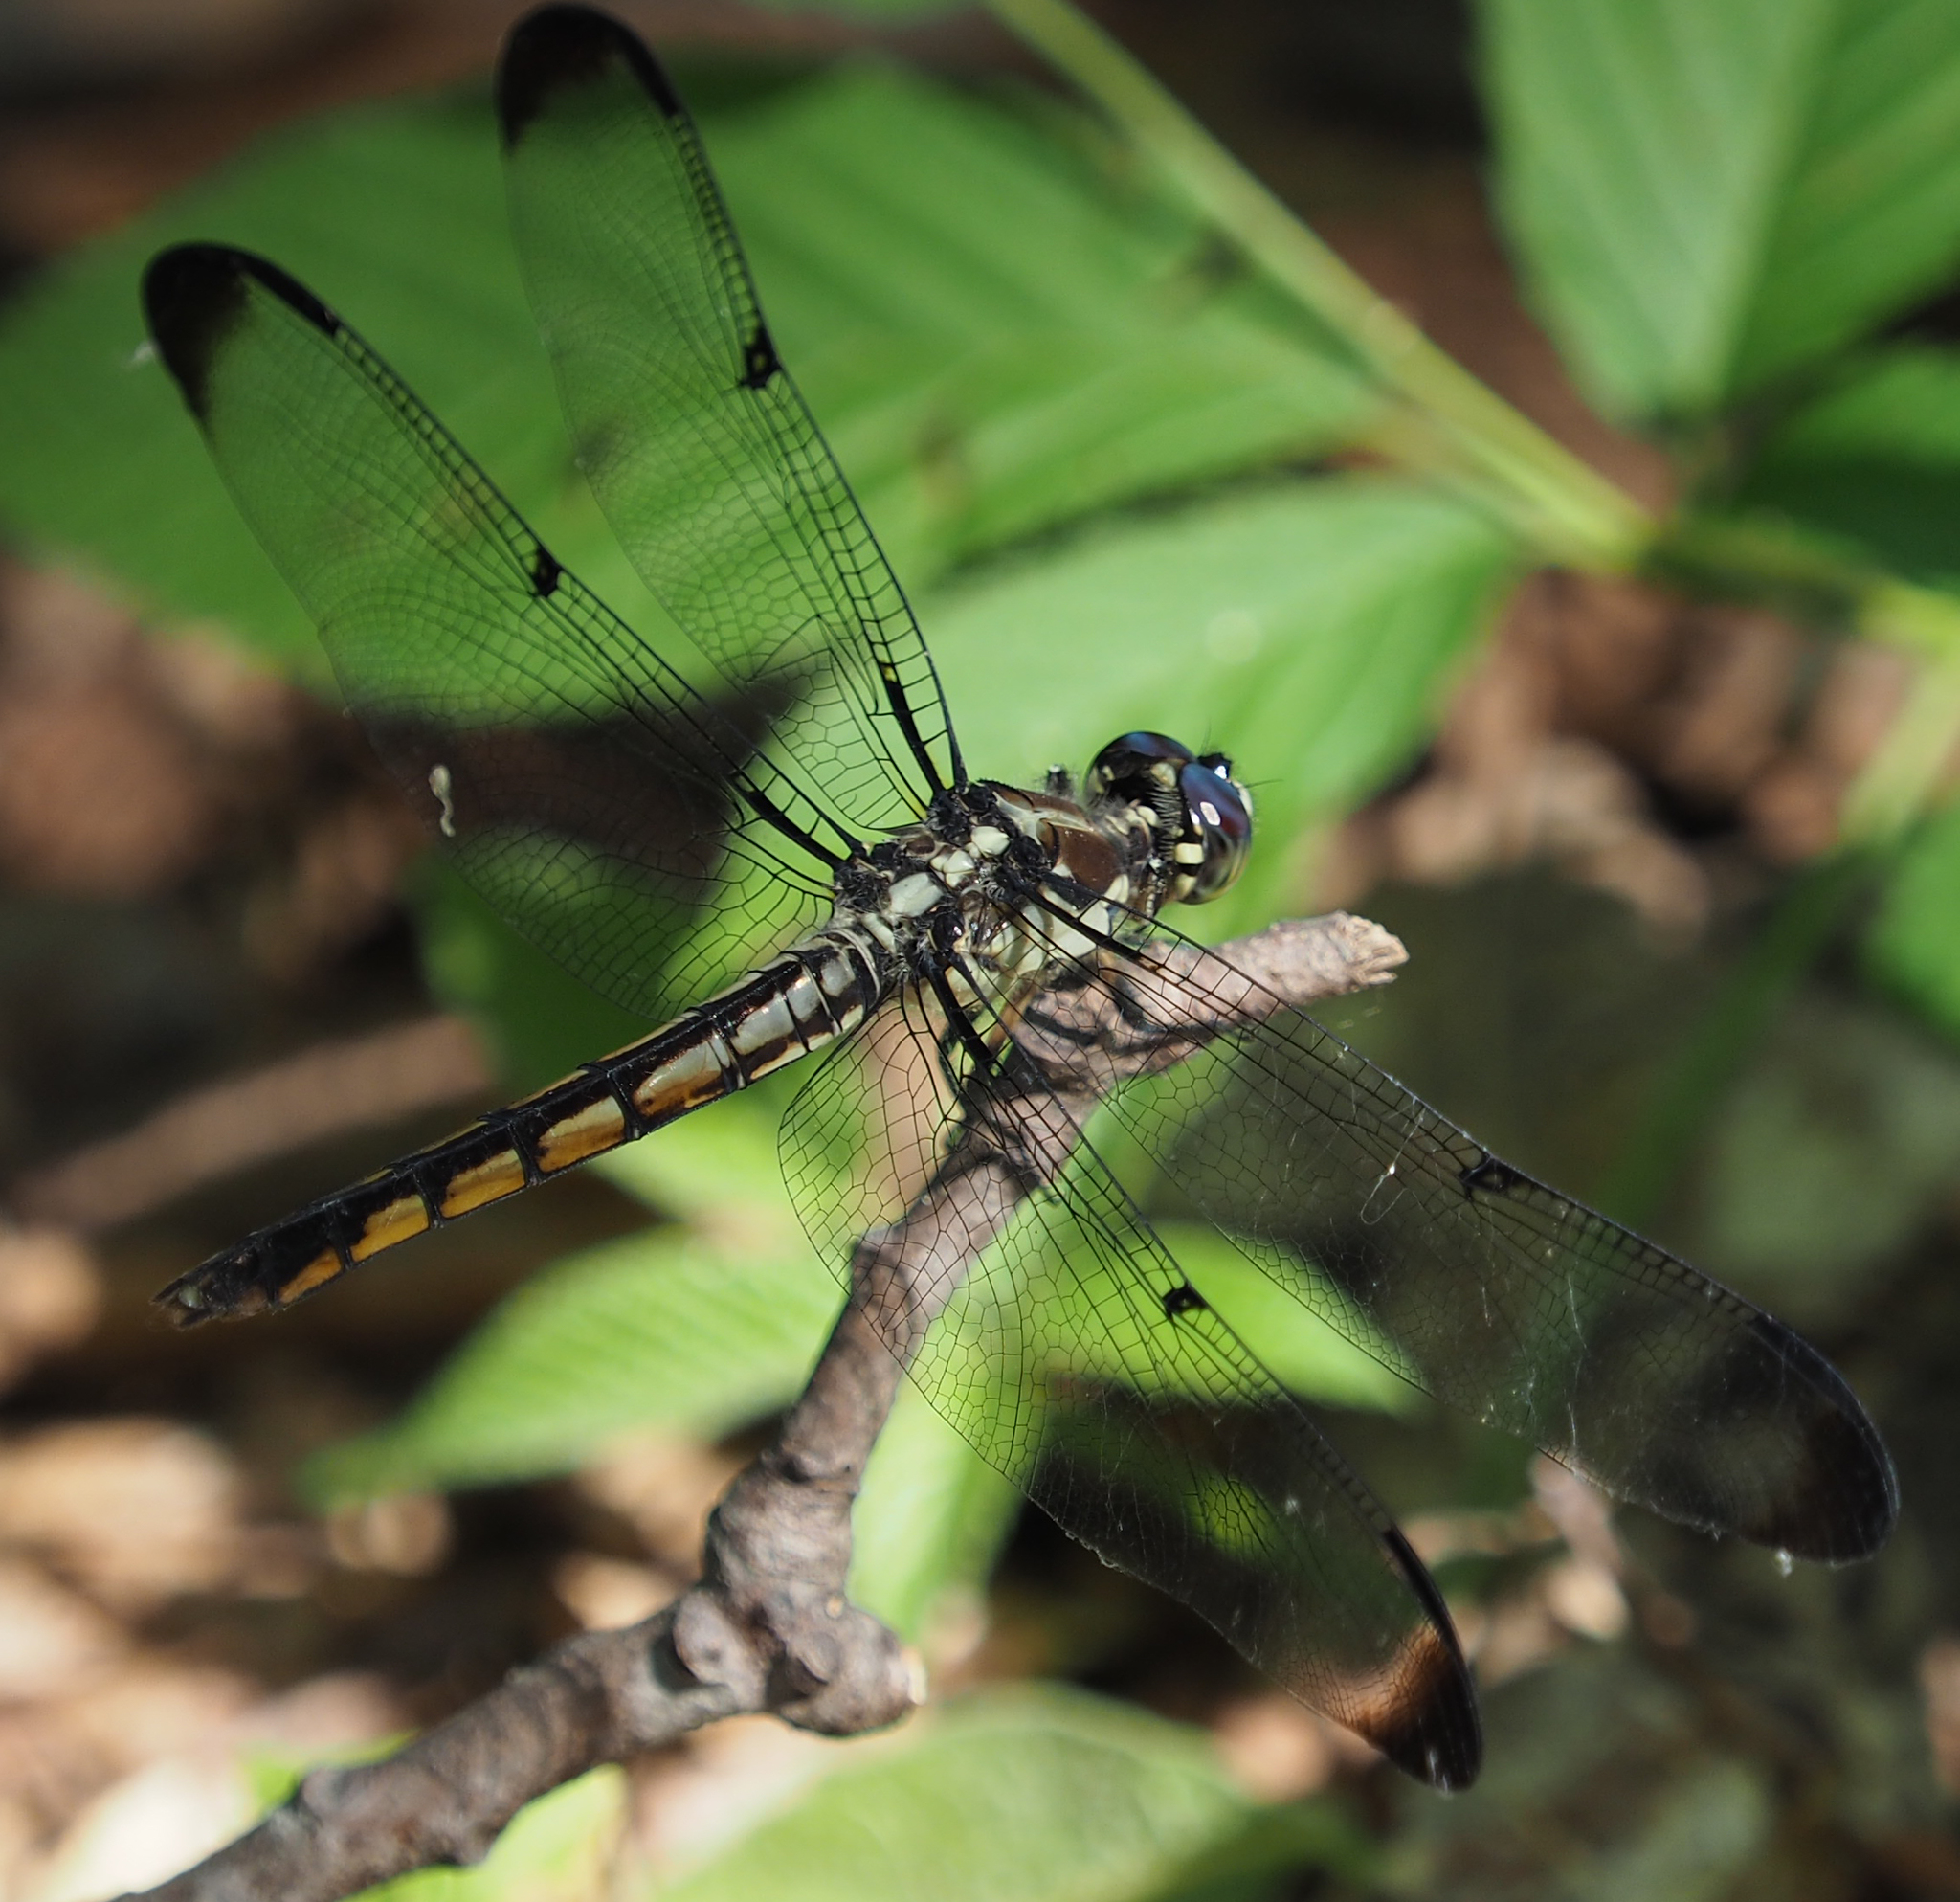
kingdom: Animalia
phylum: Arthropoda
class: Insecta
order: Odonata
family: Libellulidae
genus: Libellula
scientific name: Libellula vibrans
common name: Great blue skimmer
